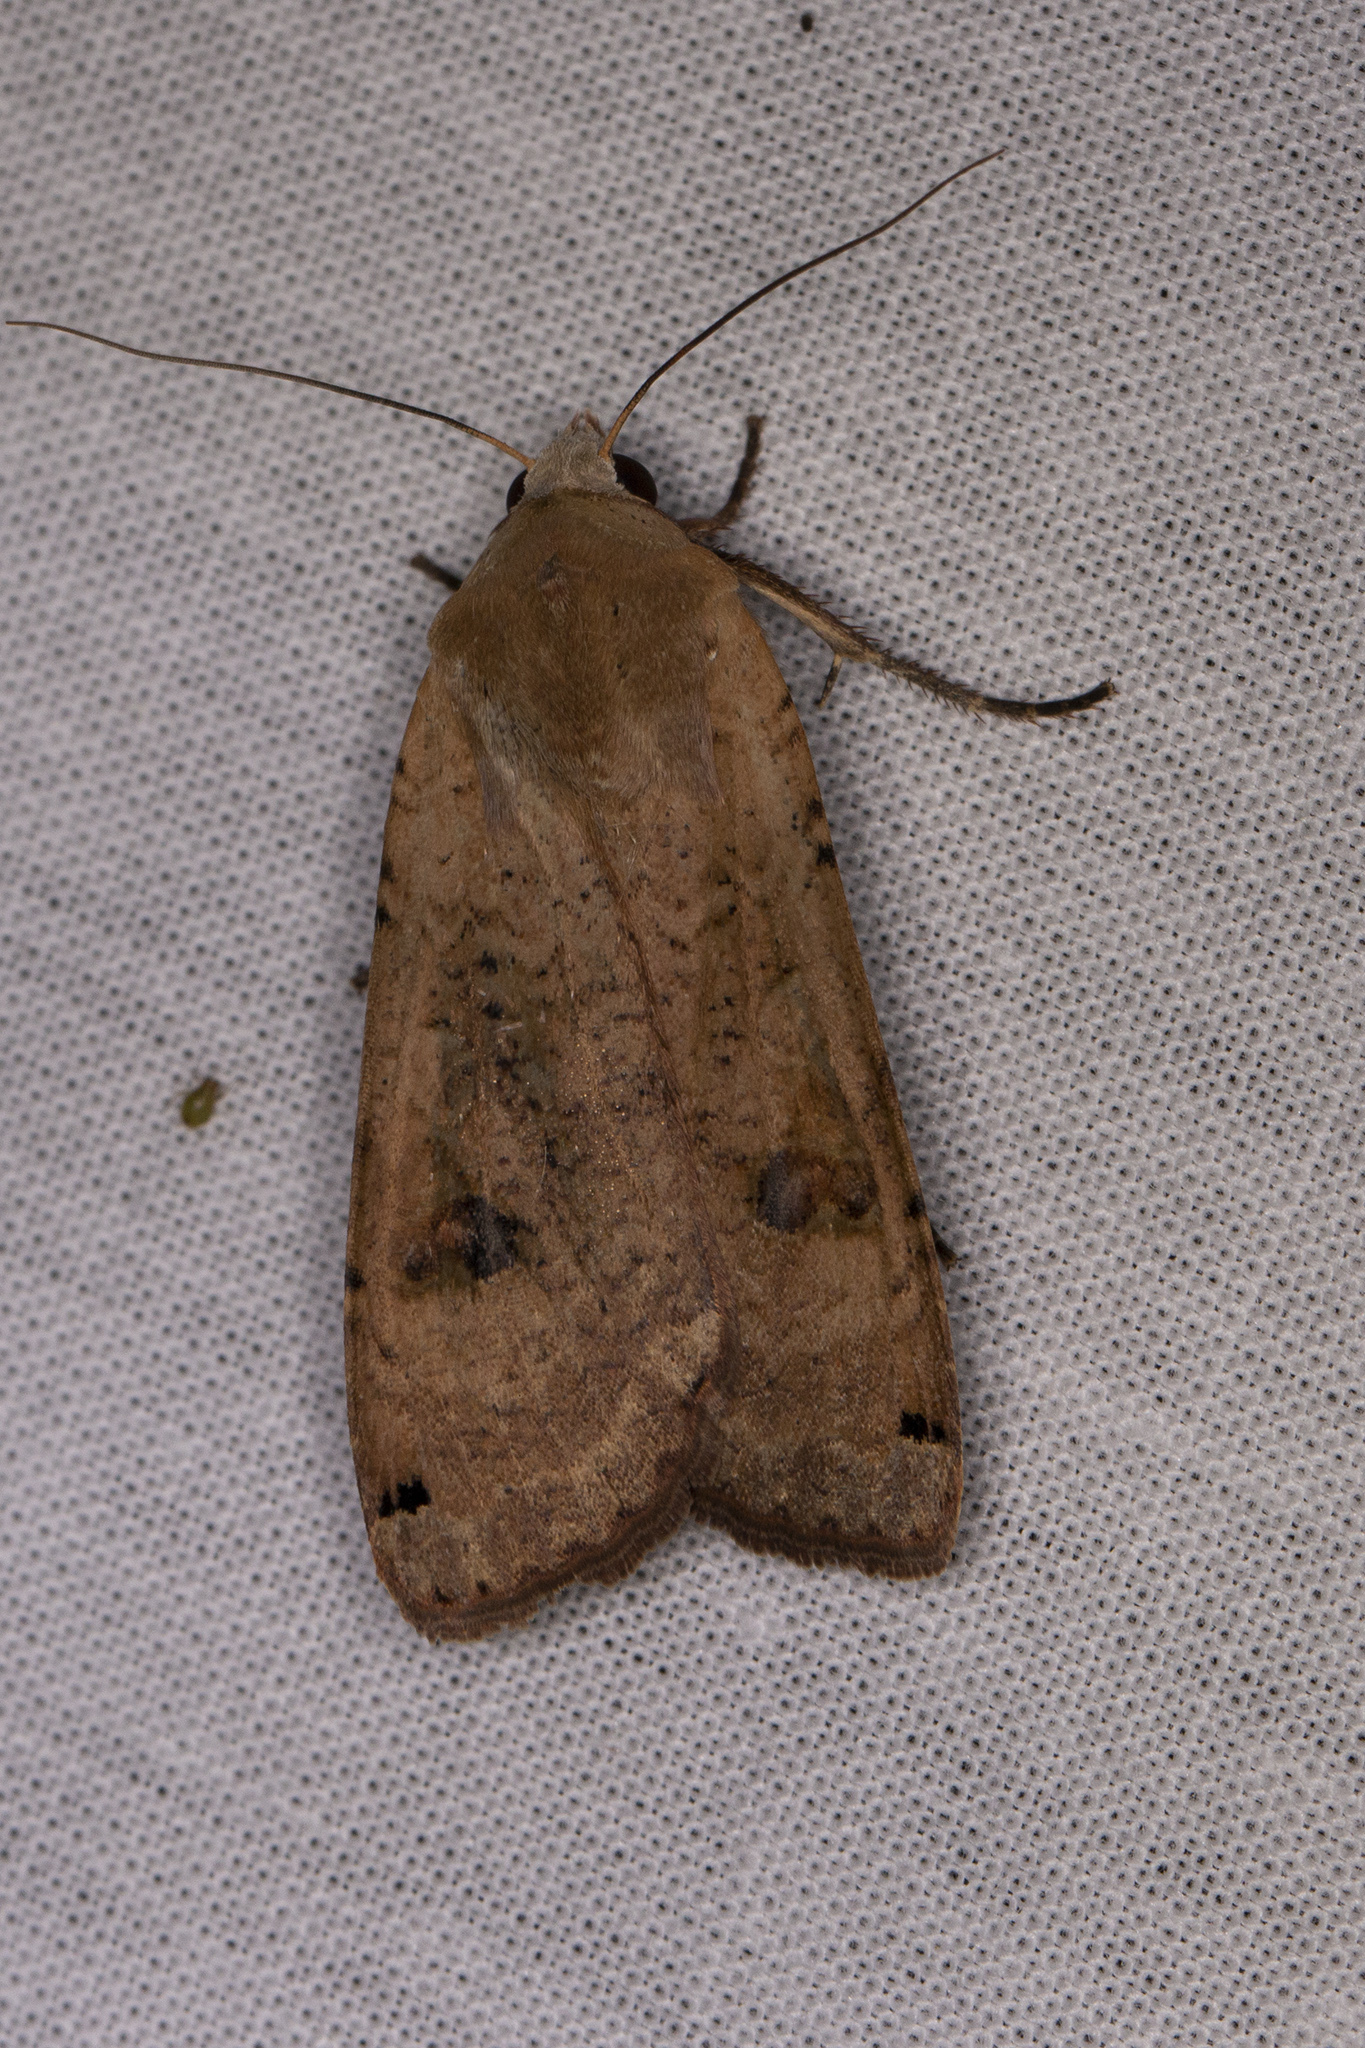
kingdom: Animalia
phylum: Arthropoda
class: Insecta
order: Lepidoptera
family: Noctuidae
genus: Noctua
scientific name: Noctua pronuba
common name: Large yellow underwing
